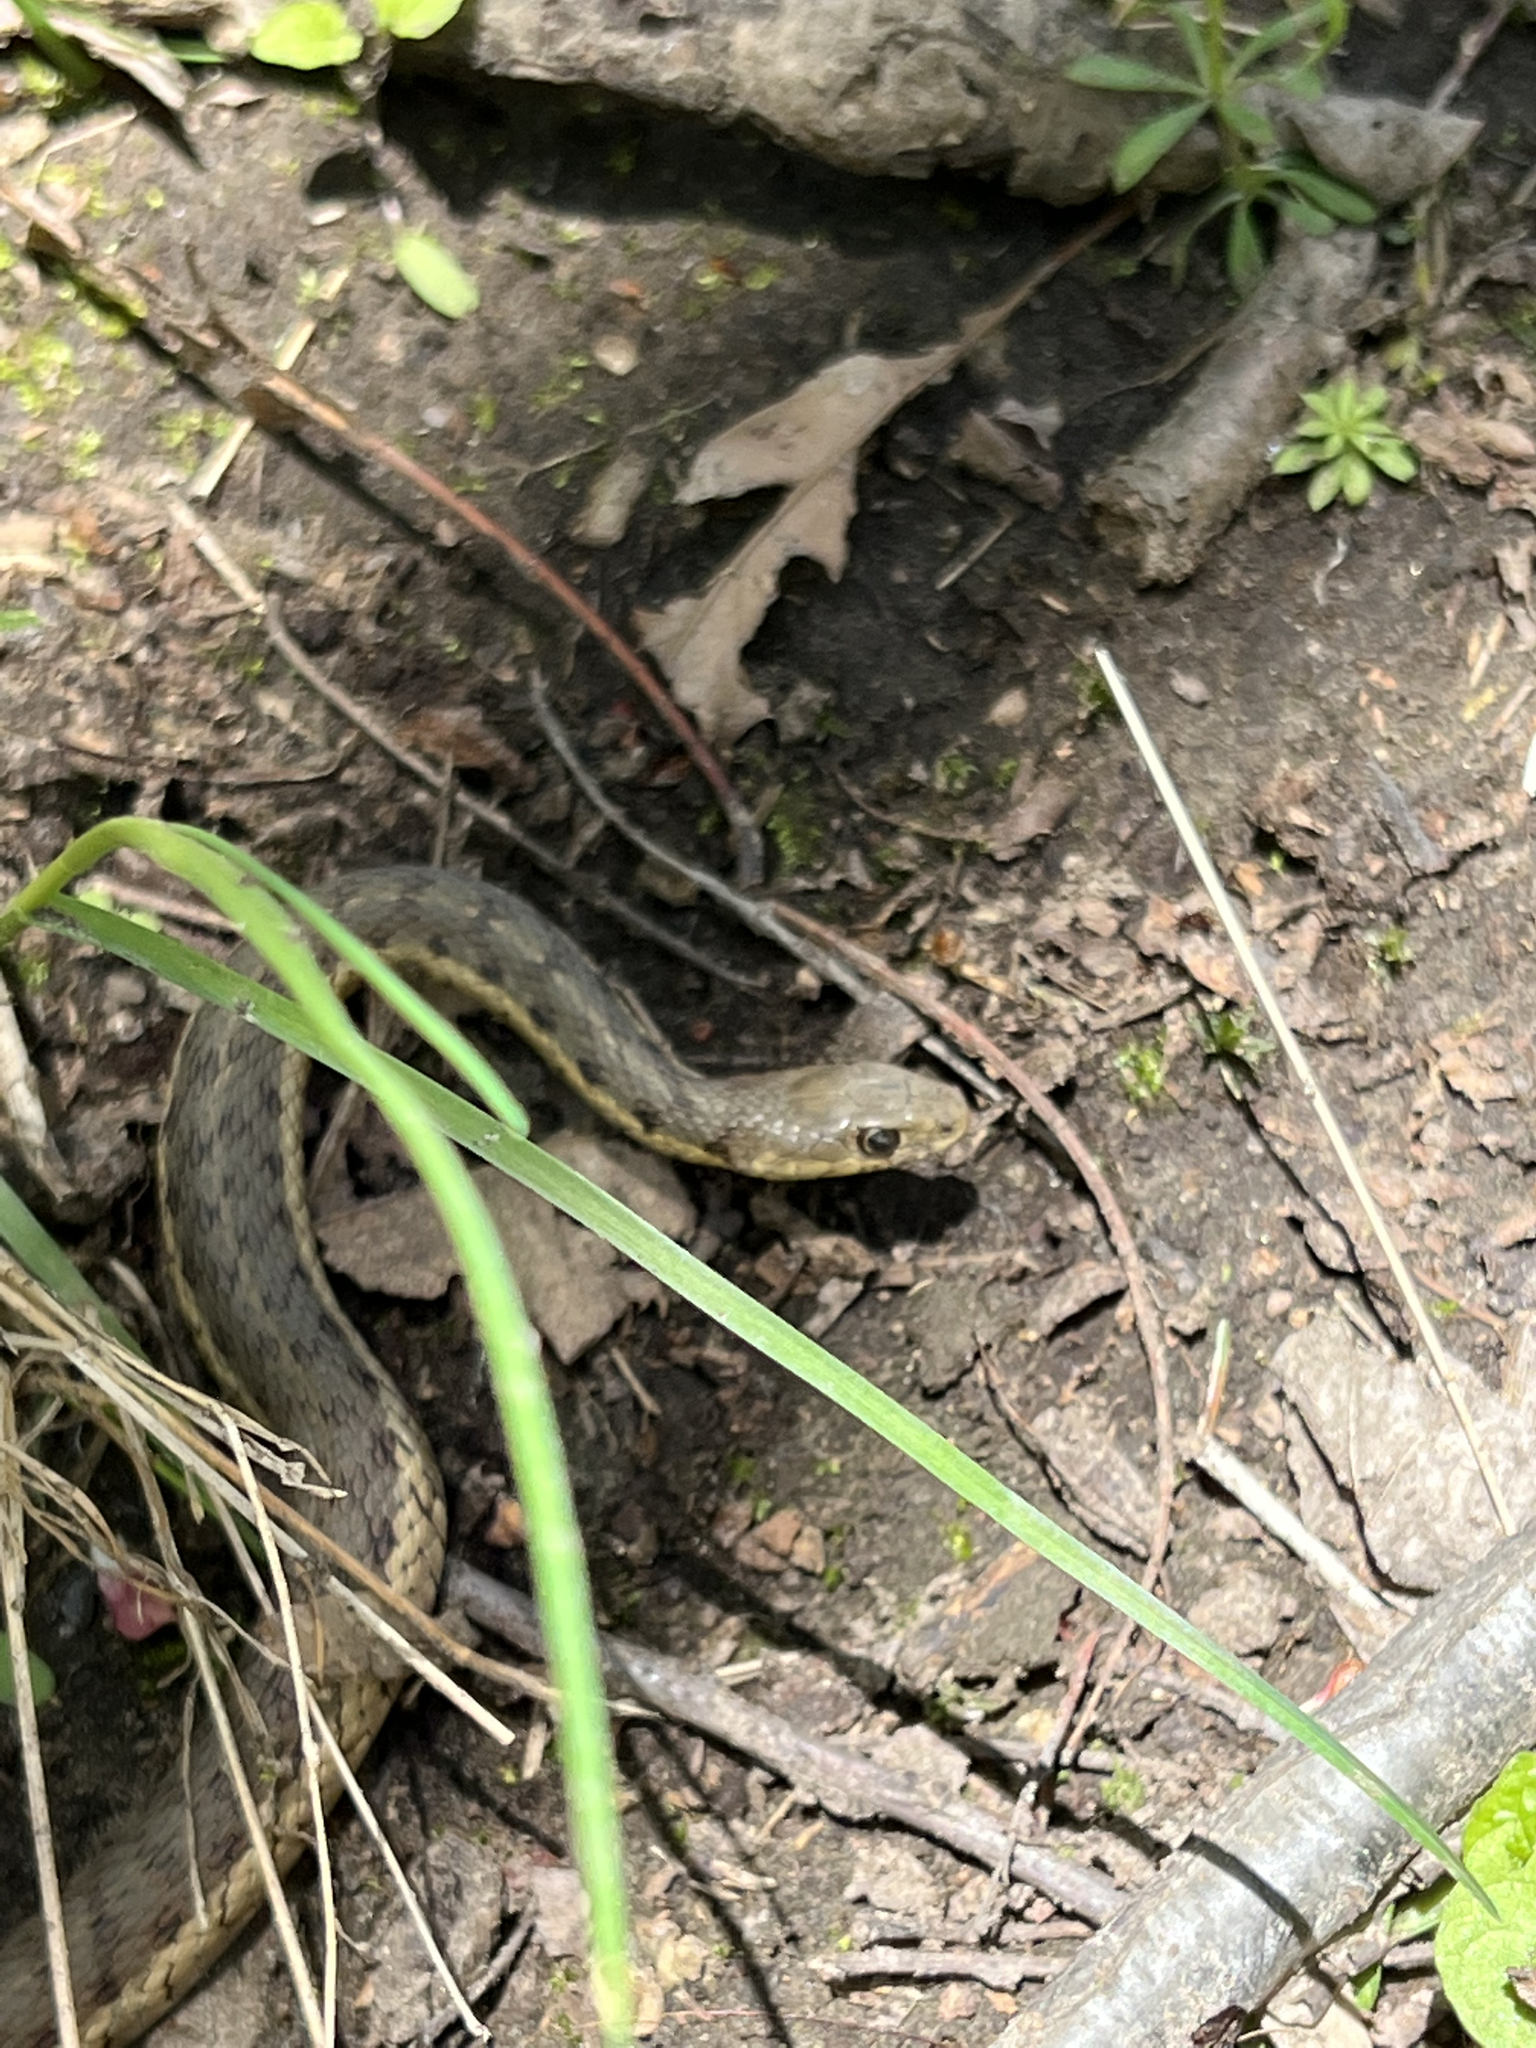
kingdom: Animalia
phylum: Chordata
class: Squamata
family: Colubridae
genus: Thamnophis
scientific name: Thamnophis sirtalis
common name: Common garter snake
